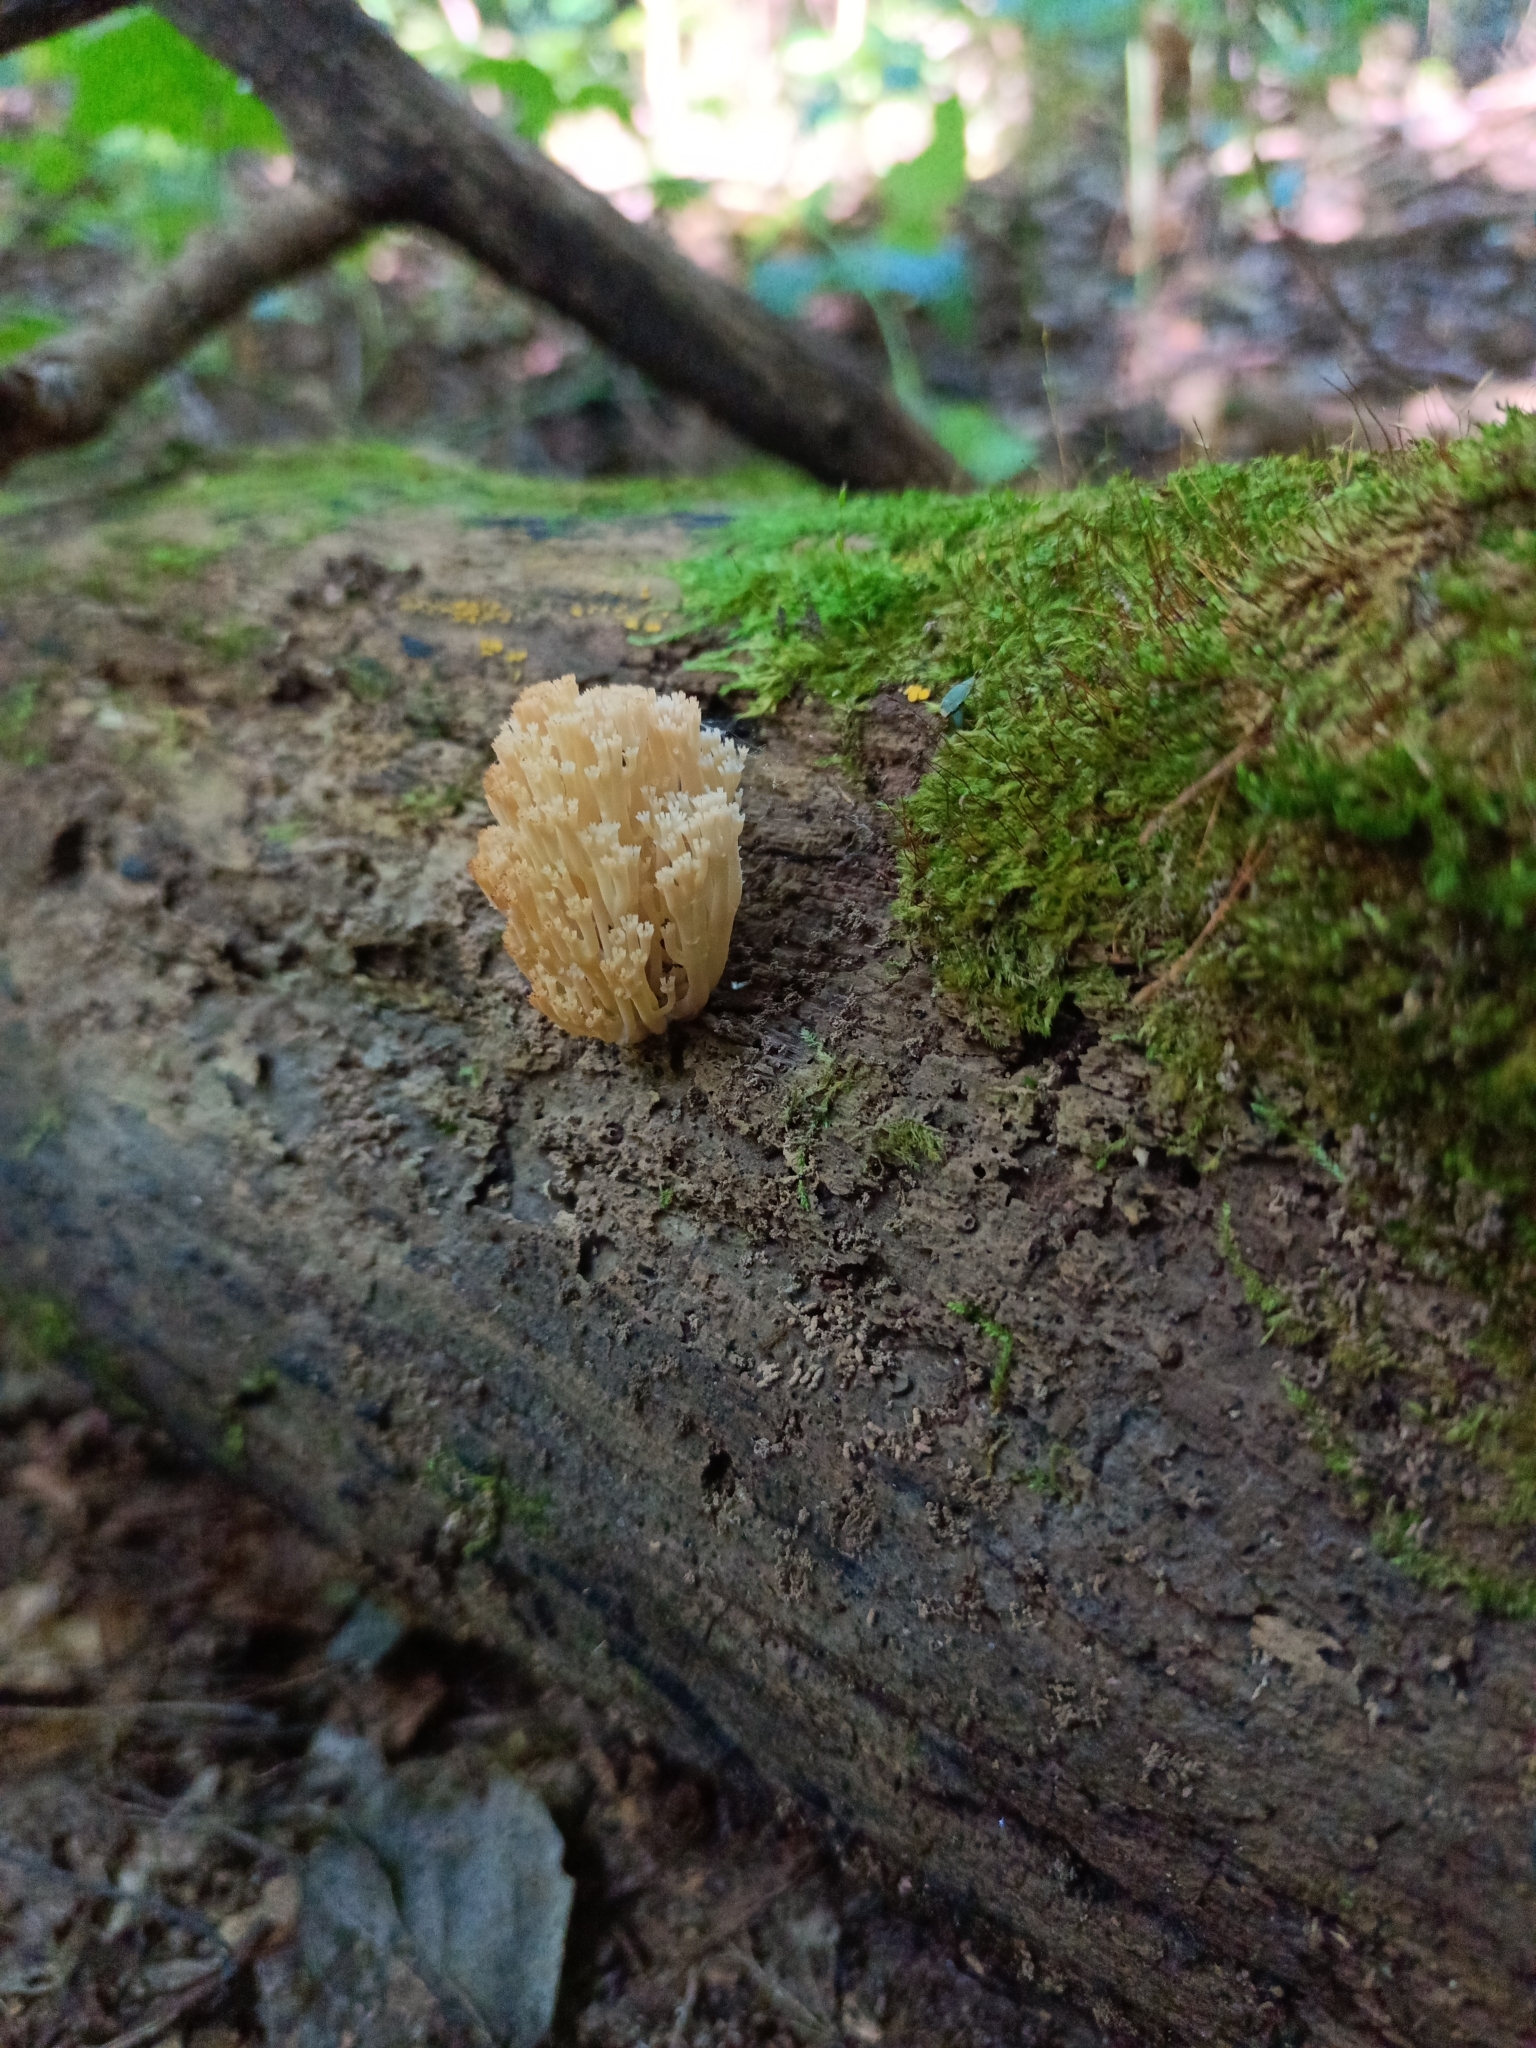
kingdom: Fungi
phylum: Basidiomycota
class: Agaricomycetes
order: Russulales
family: Auriscalpiaceae
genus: Artomyces
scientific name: Artomyces pyxidatus
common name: Crown-tipped coral fungus
